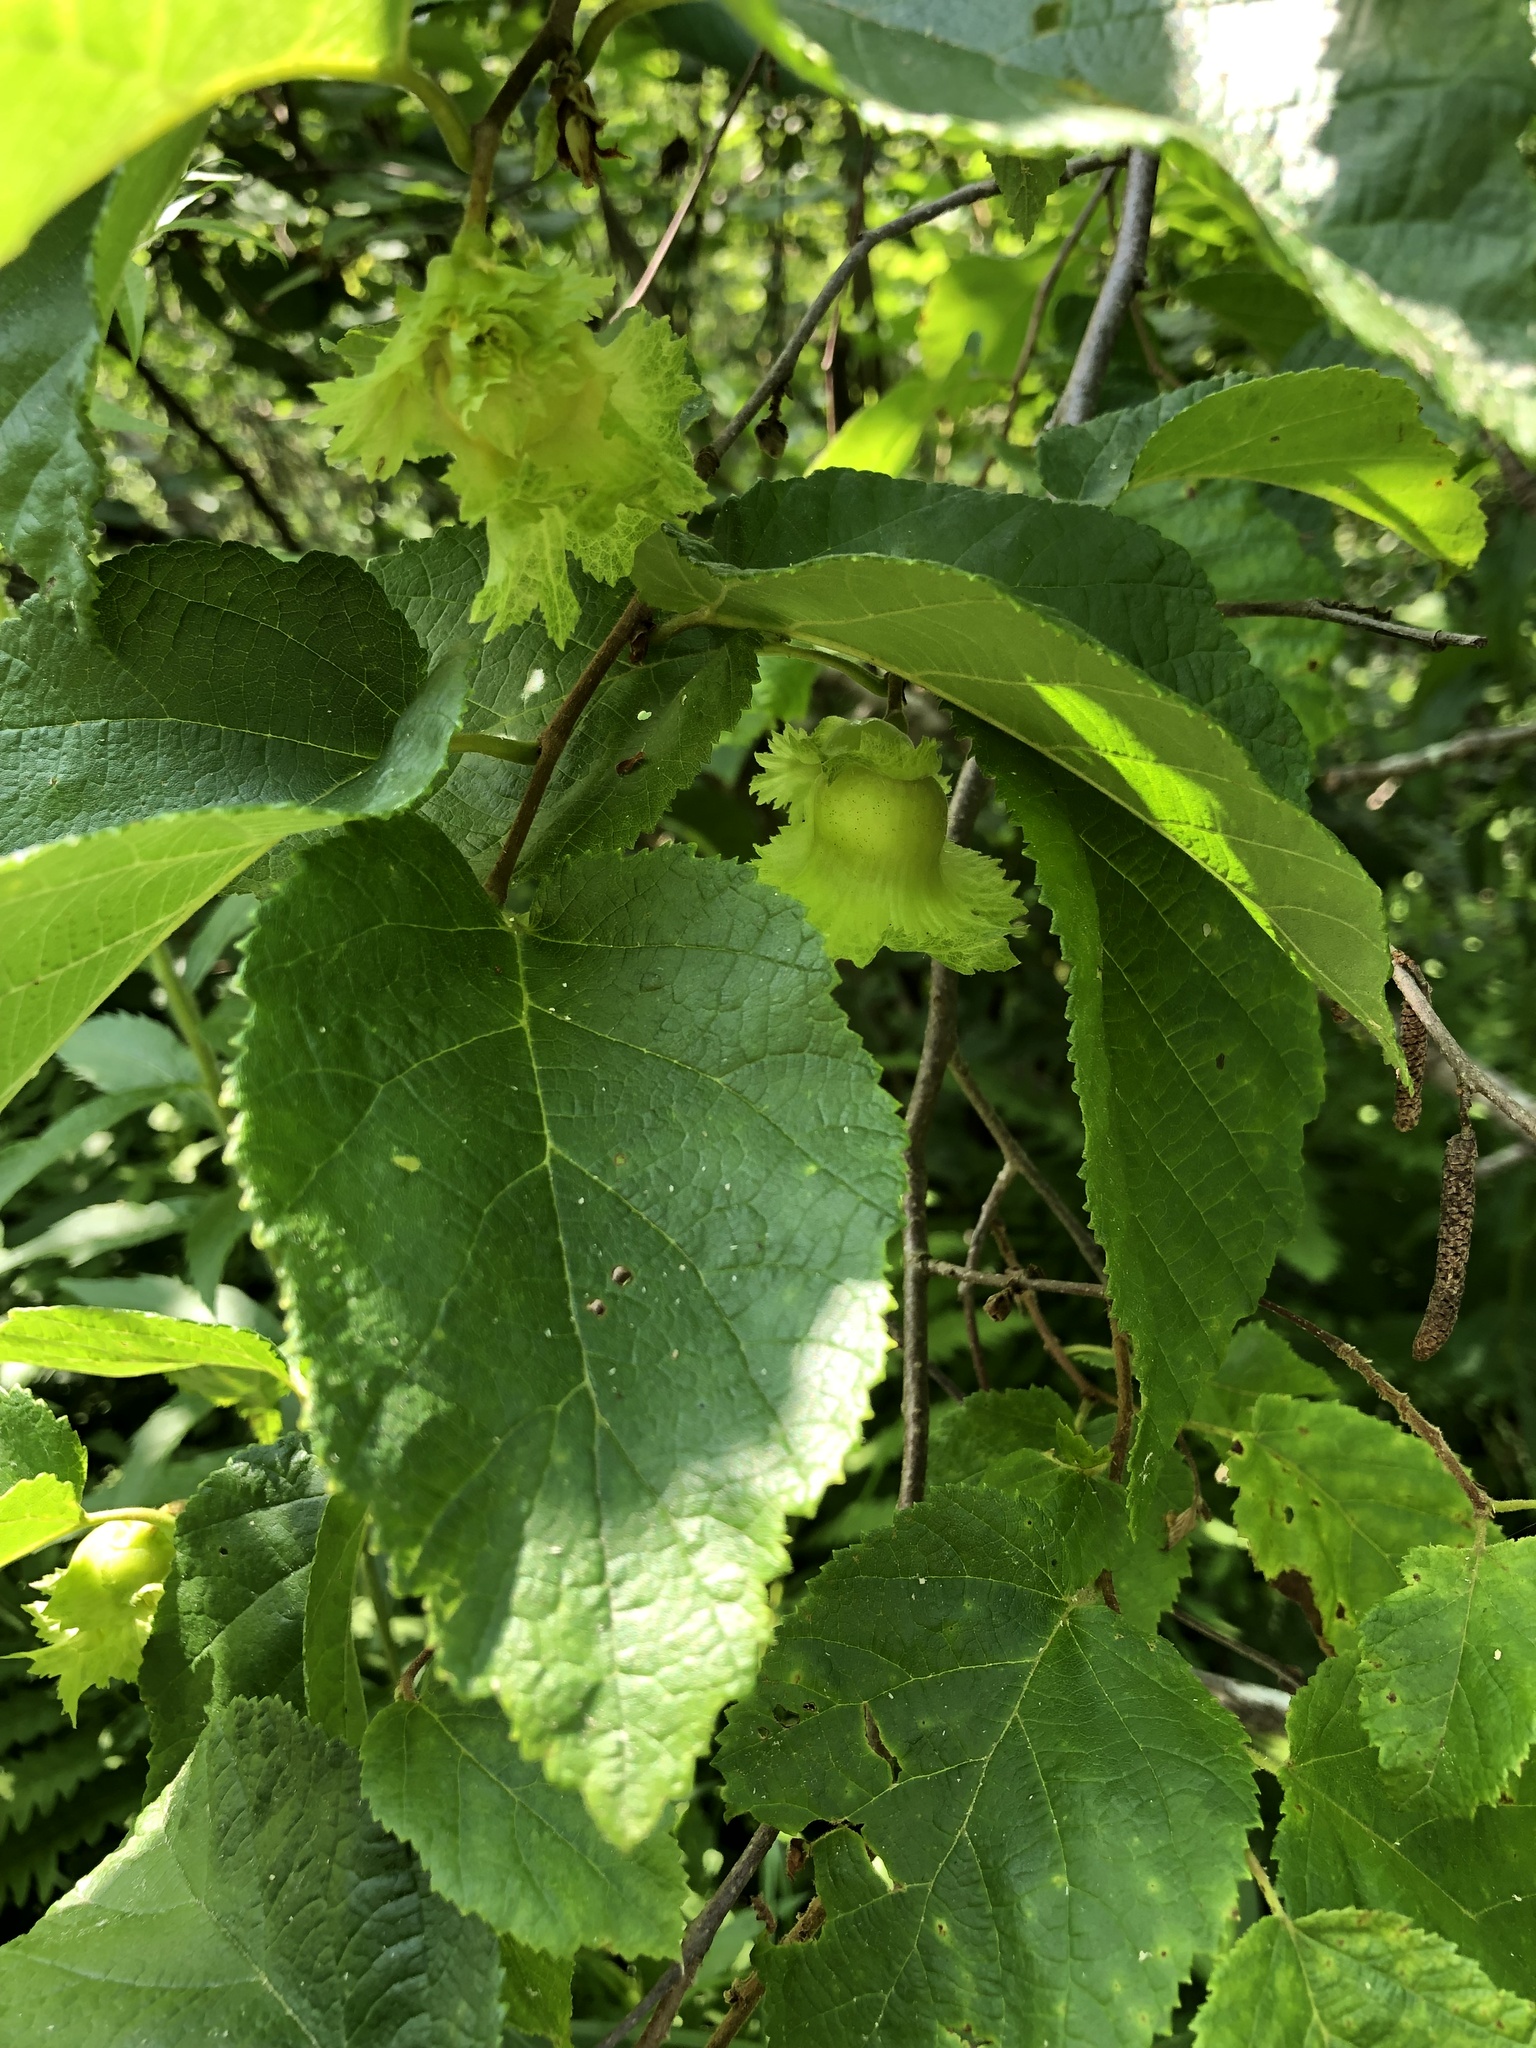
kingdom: Plantae
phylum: Tracheophyta
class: Magnoliopsida
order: Fagales
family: Betulaceae
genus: Corylus
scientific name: Corylus americana
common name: American hazel
